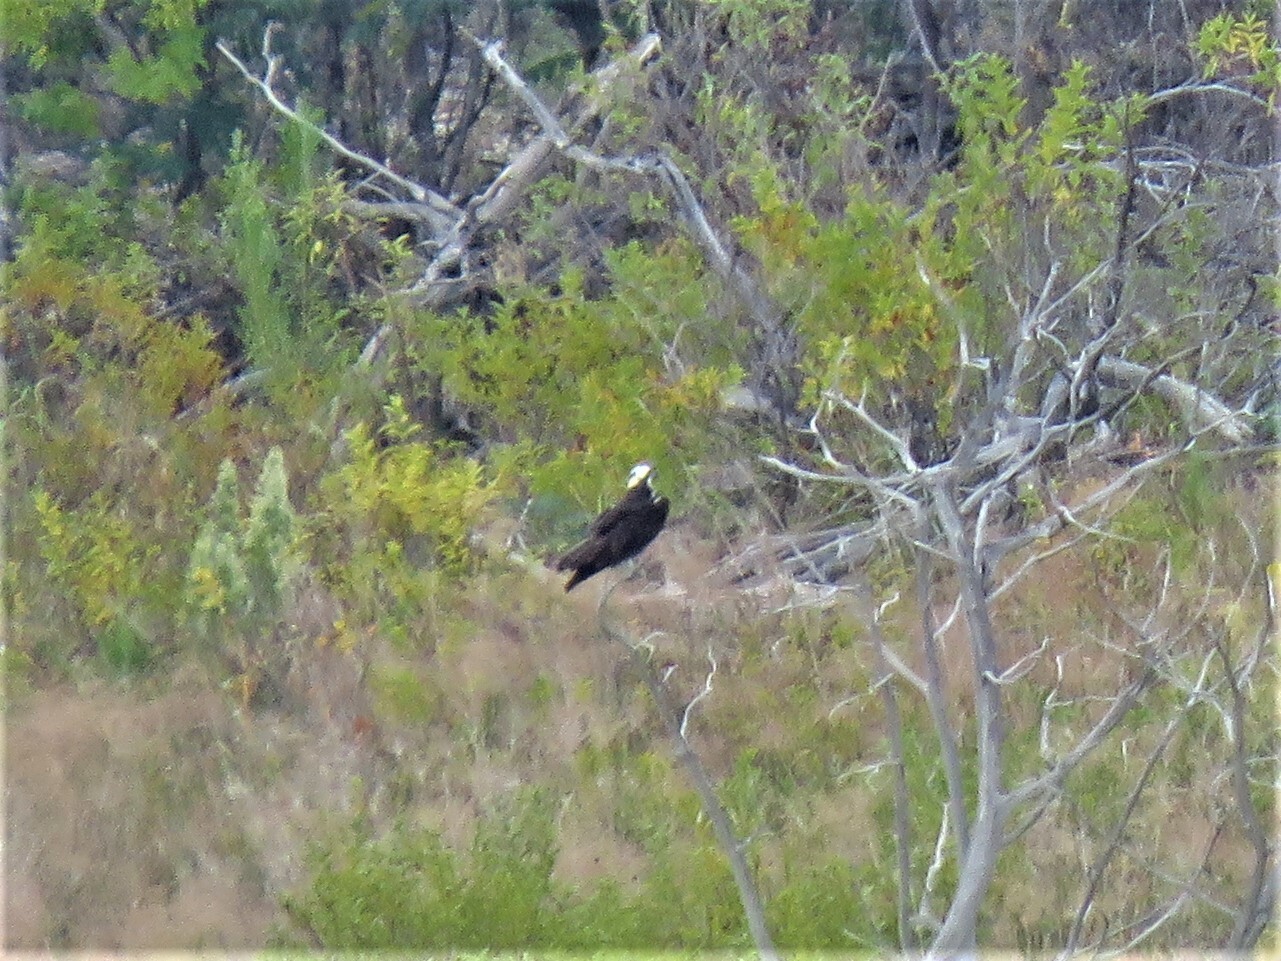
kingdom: Animalia
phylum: Chordata
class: Aves
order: Accipitriformes
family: Pandionidae
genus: Pandion
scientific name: Pandion haliaetus
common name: Osprey
